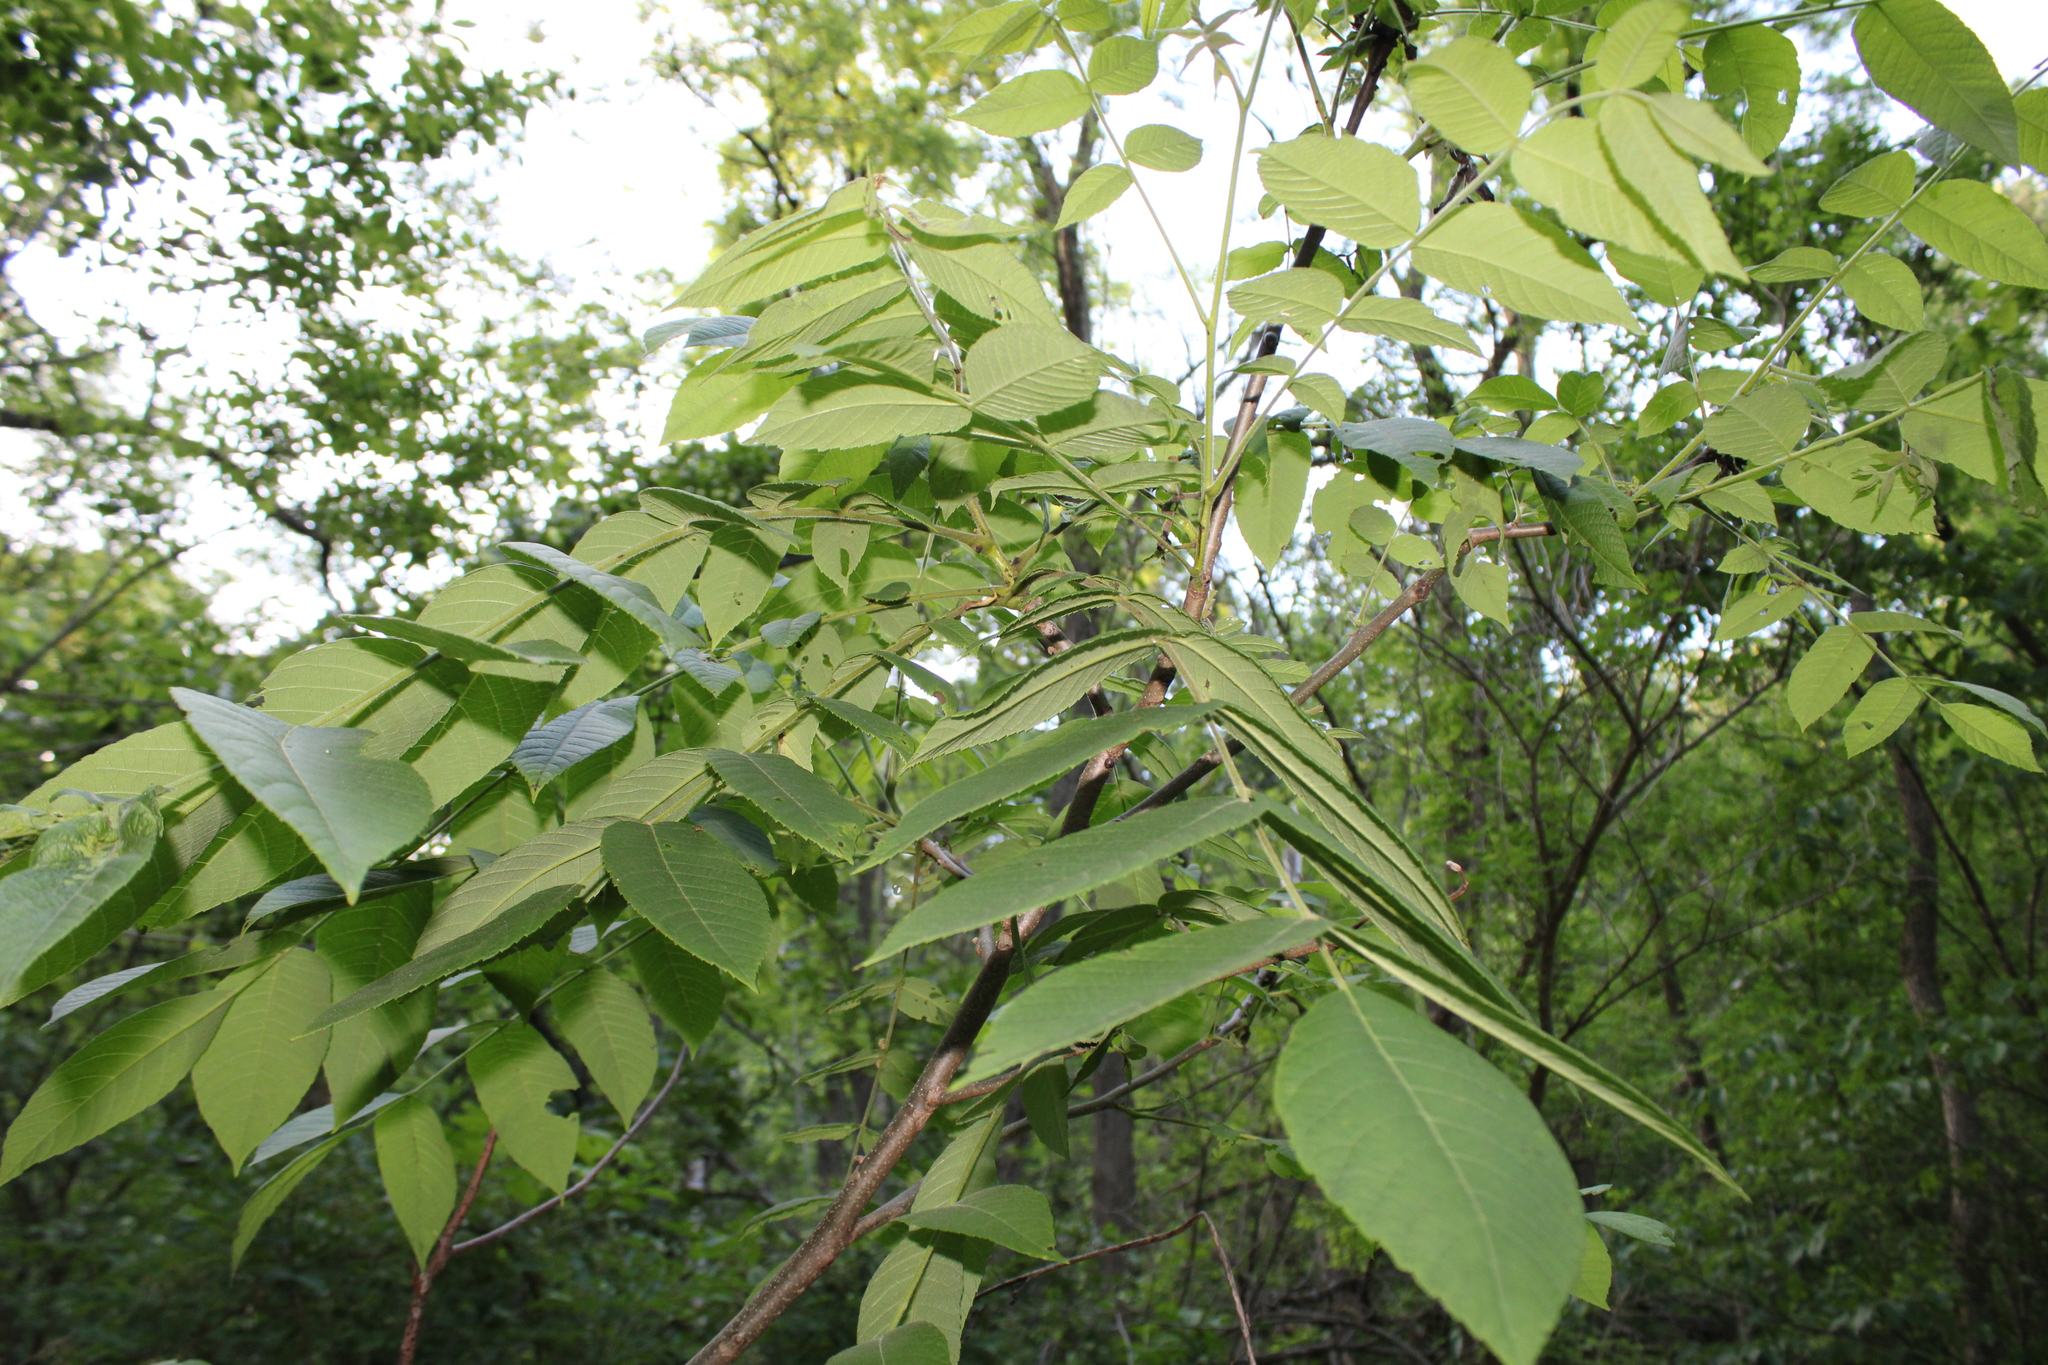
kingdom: Plantae
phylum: Tracheophyta
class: Magnoliopsida
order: Fagales
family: Juglandaceae
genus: Juglans
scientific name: Juglans cinerea
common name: Butternut
